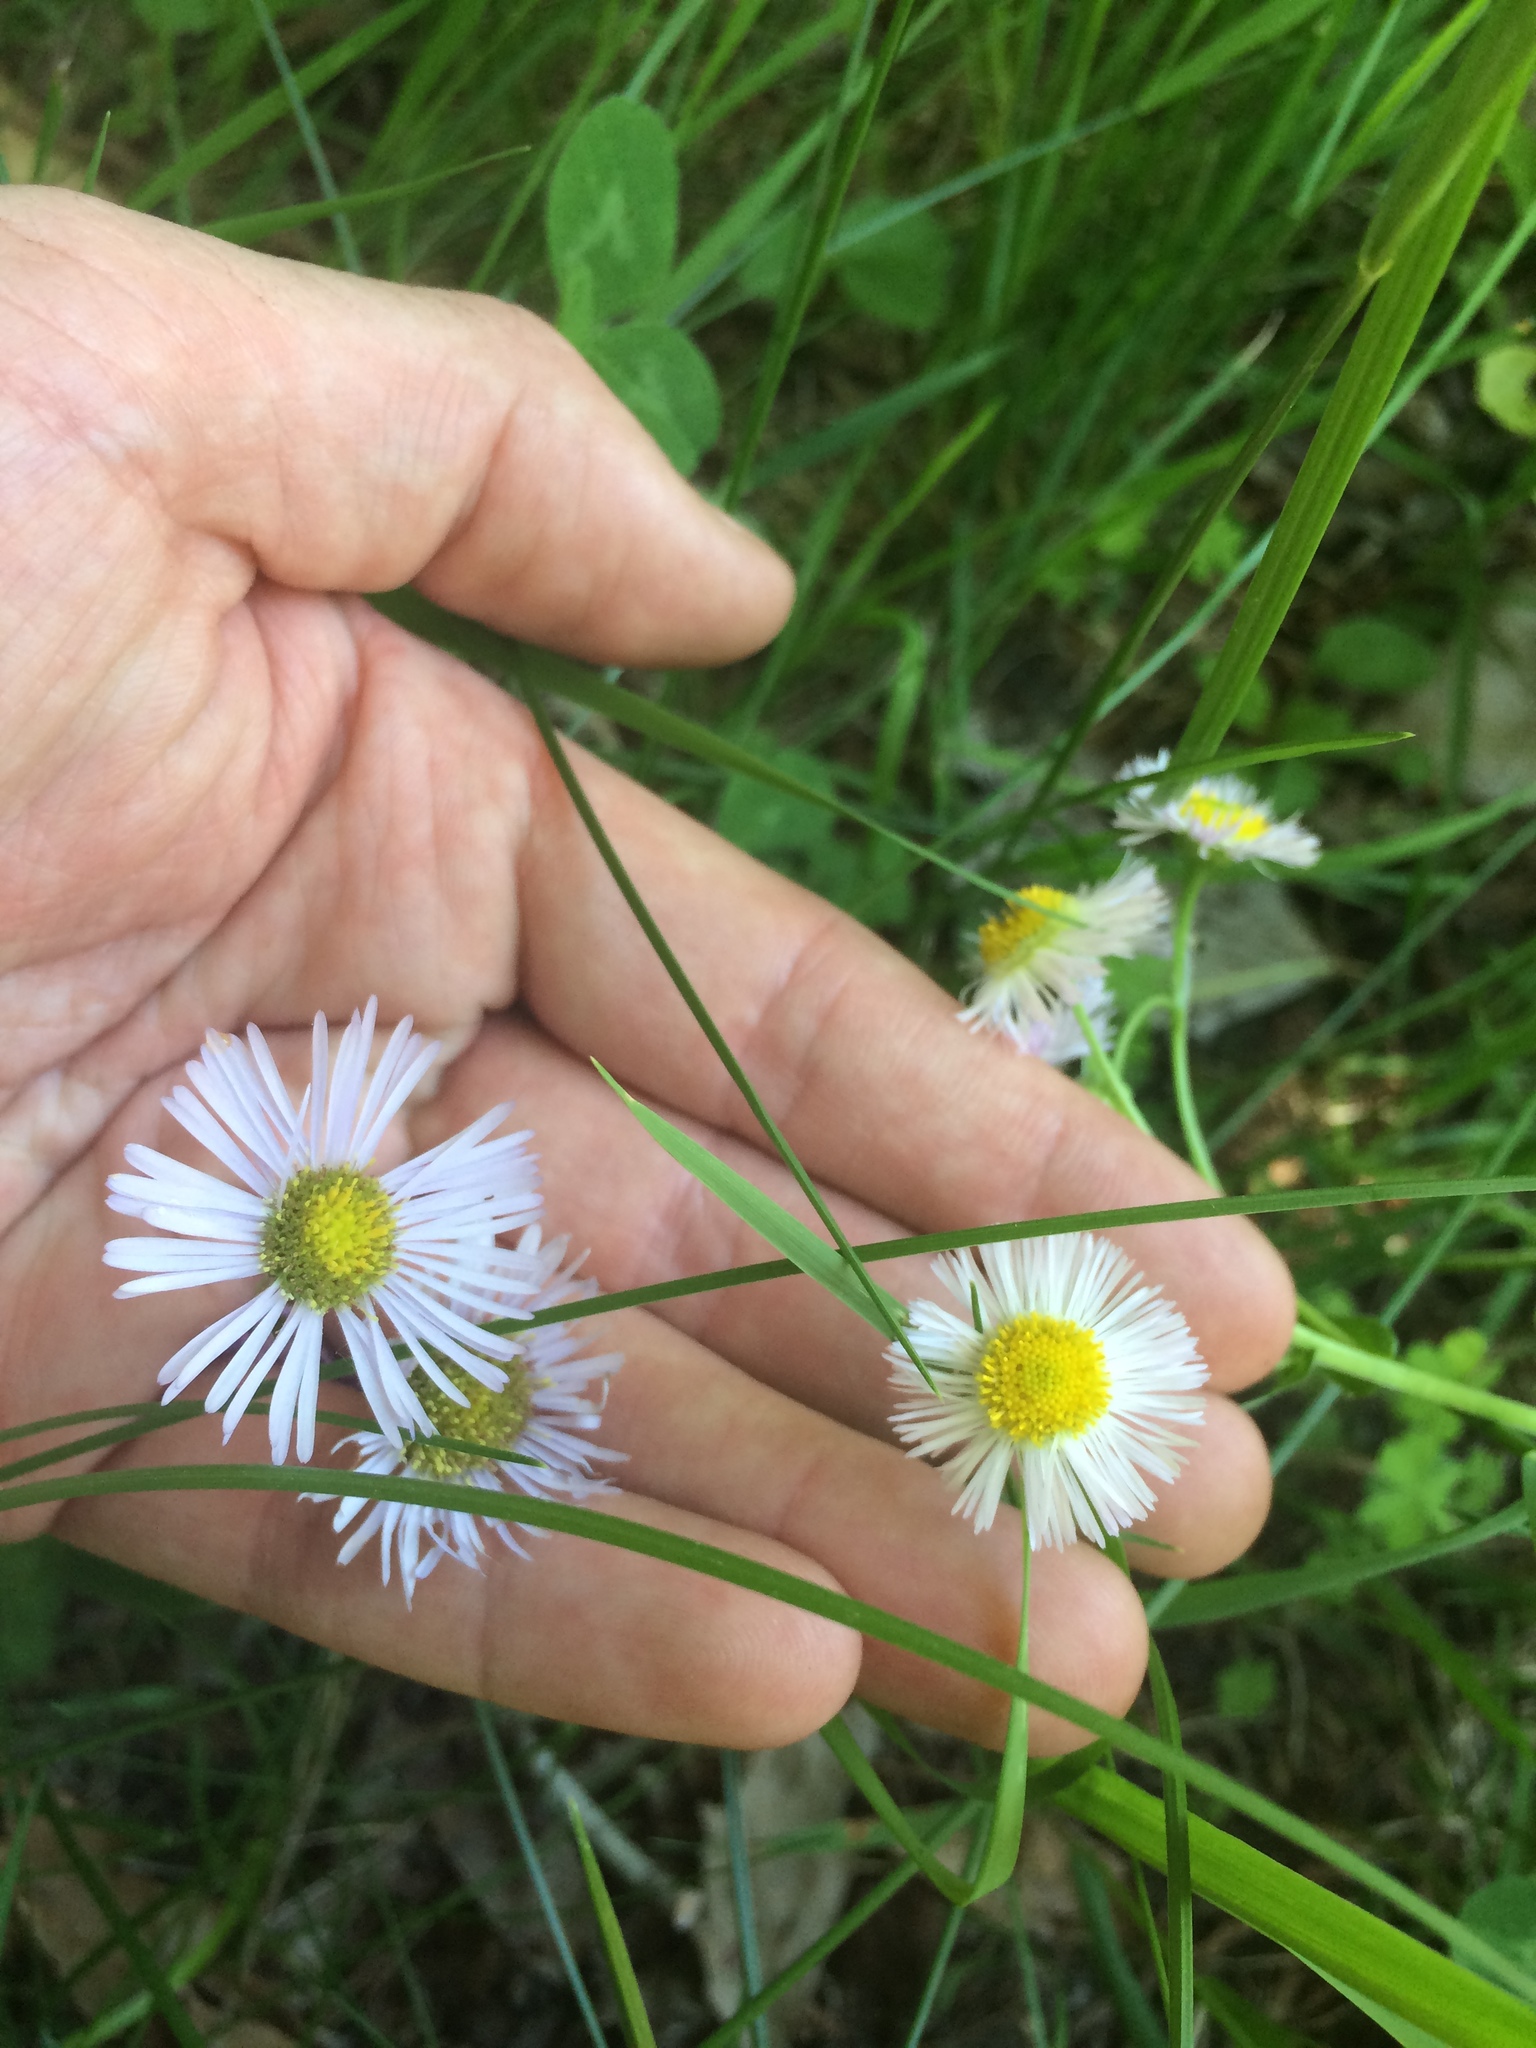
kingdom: Plantae
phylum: Tracheophyta
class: Magnoliopsida
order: Asterales
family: Asteraceae
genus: Erigeron
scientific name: Erigeron pulchellus
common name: Hairy fleabane
